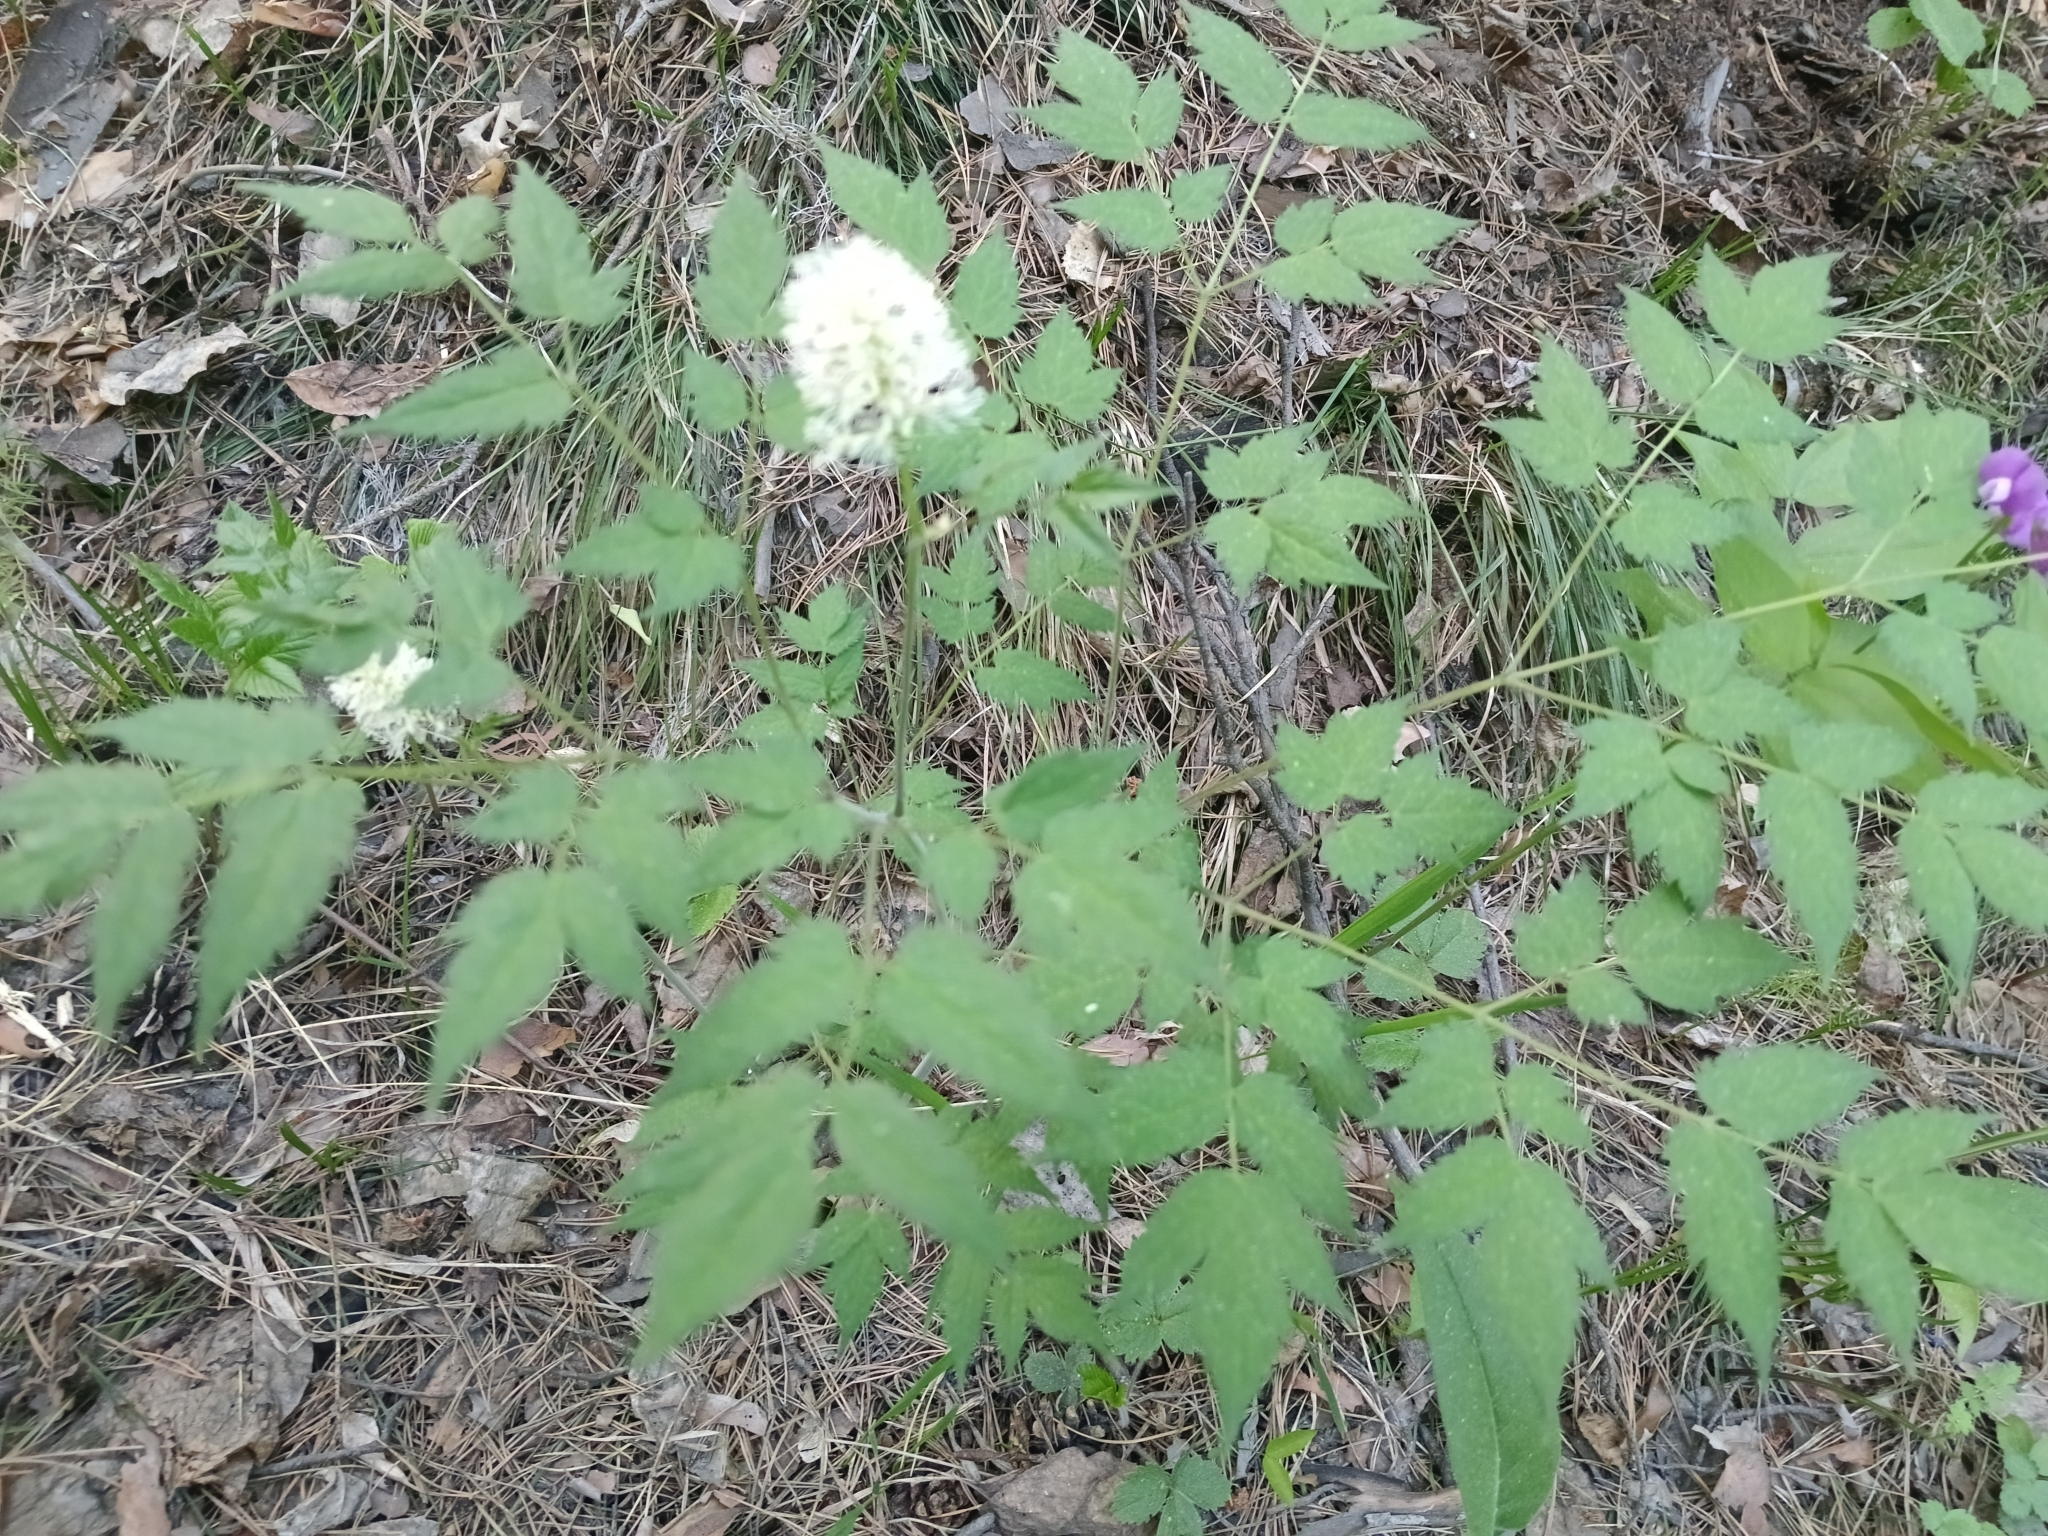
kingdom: Plantae
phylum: Tracheophyta
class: Magnoliopsida
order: Ranunculales
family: Ranunculaceae
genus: Actaea
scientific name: Actaea erythrocarpa
